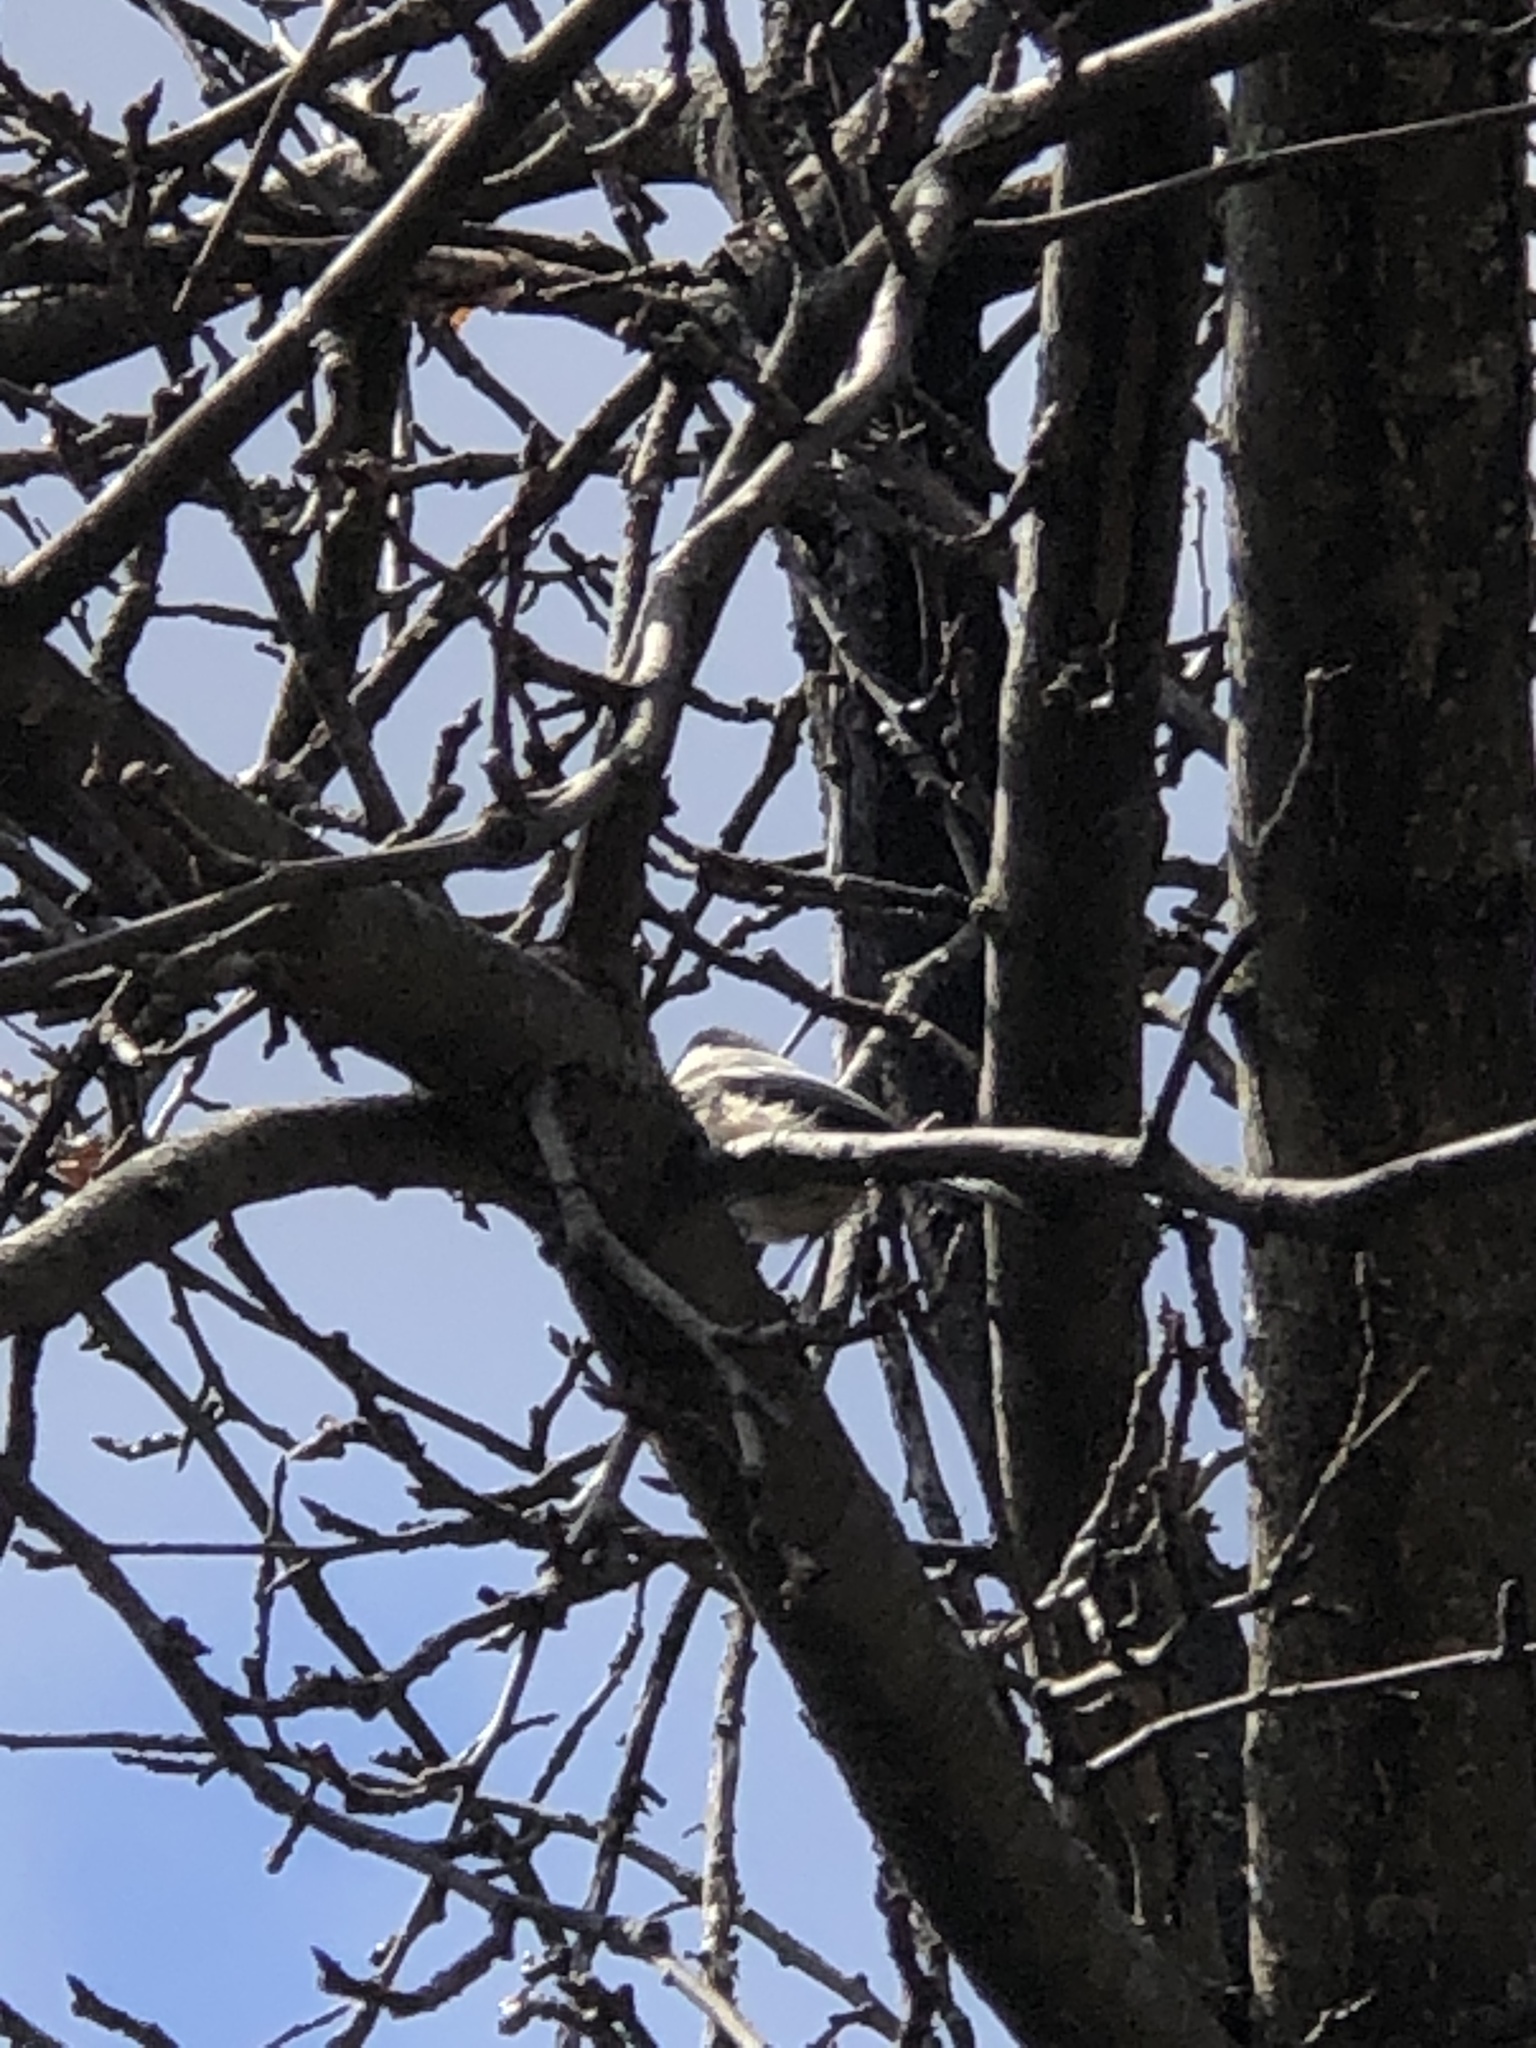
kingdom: Animalia
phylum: Chordata
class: Aves
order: Passeriformes
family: Paridae
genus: Poecile
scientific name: Poecile atricapillus
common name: Black-capped chickadee
